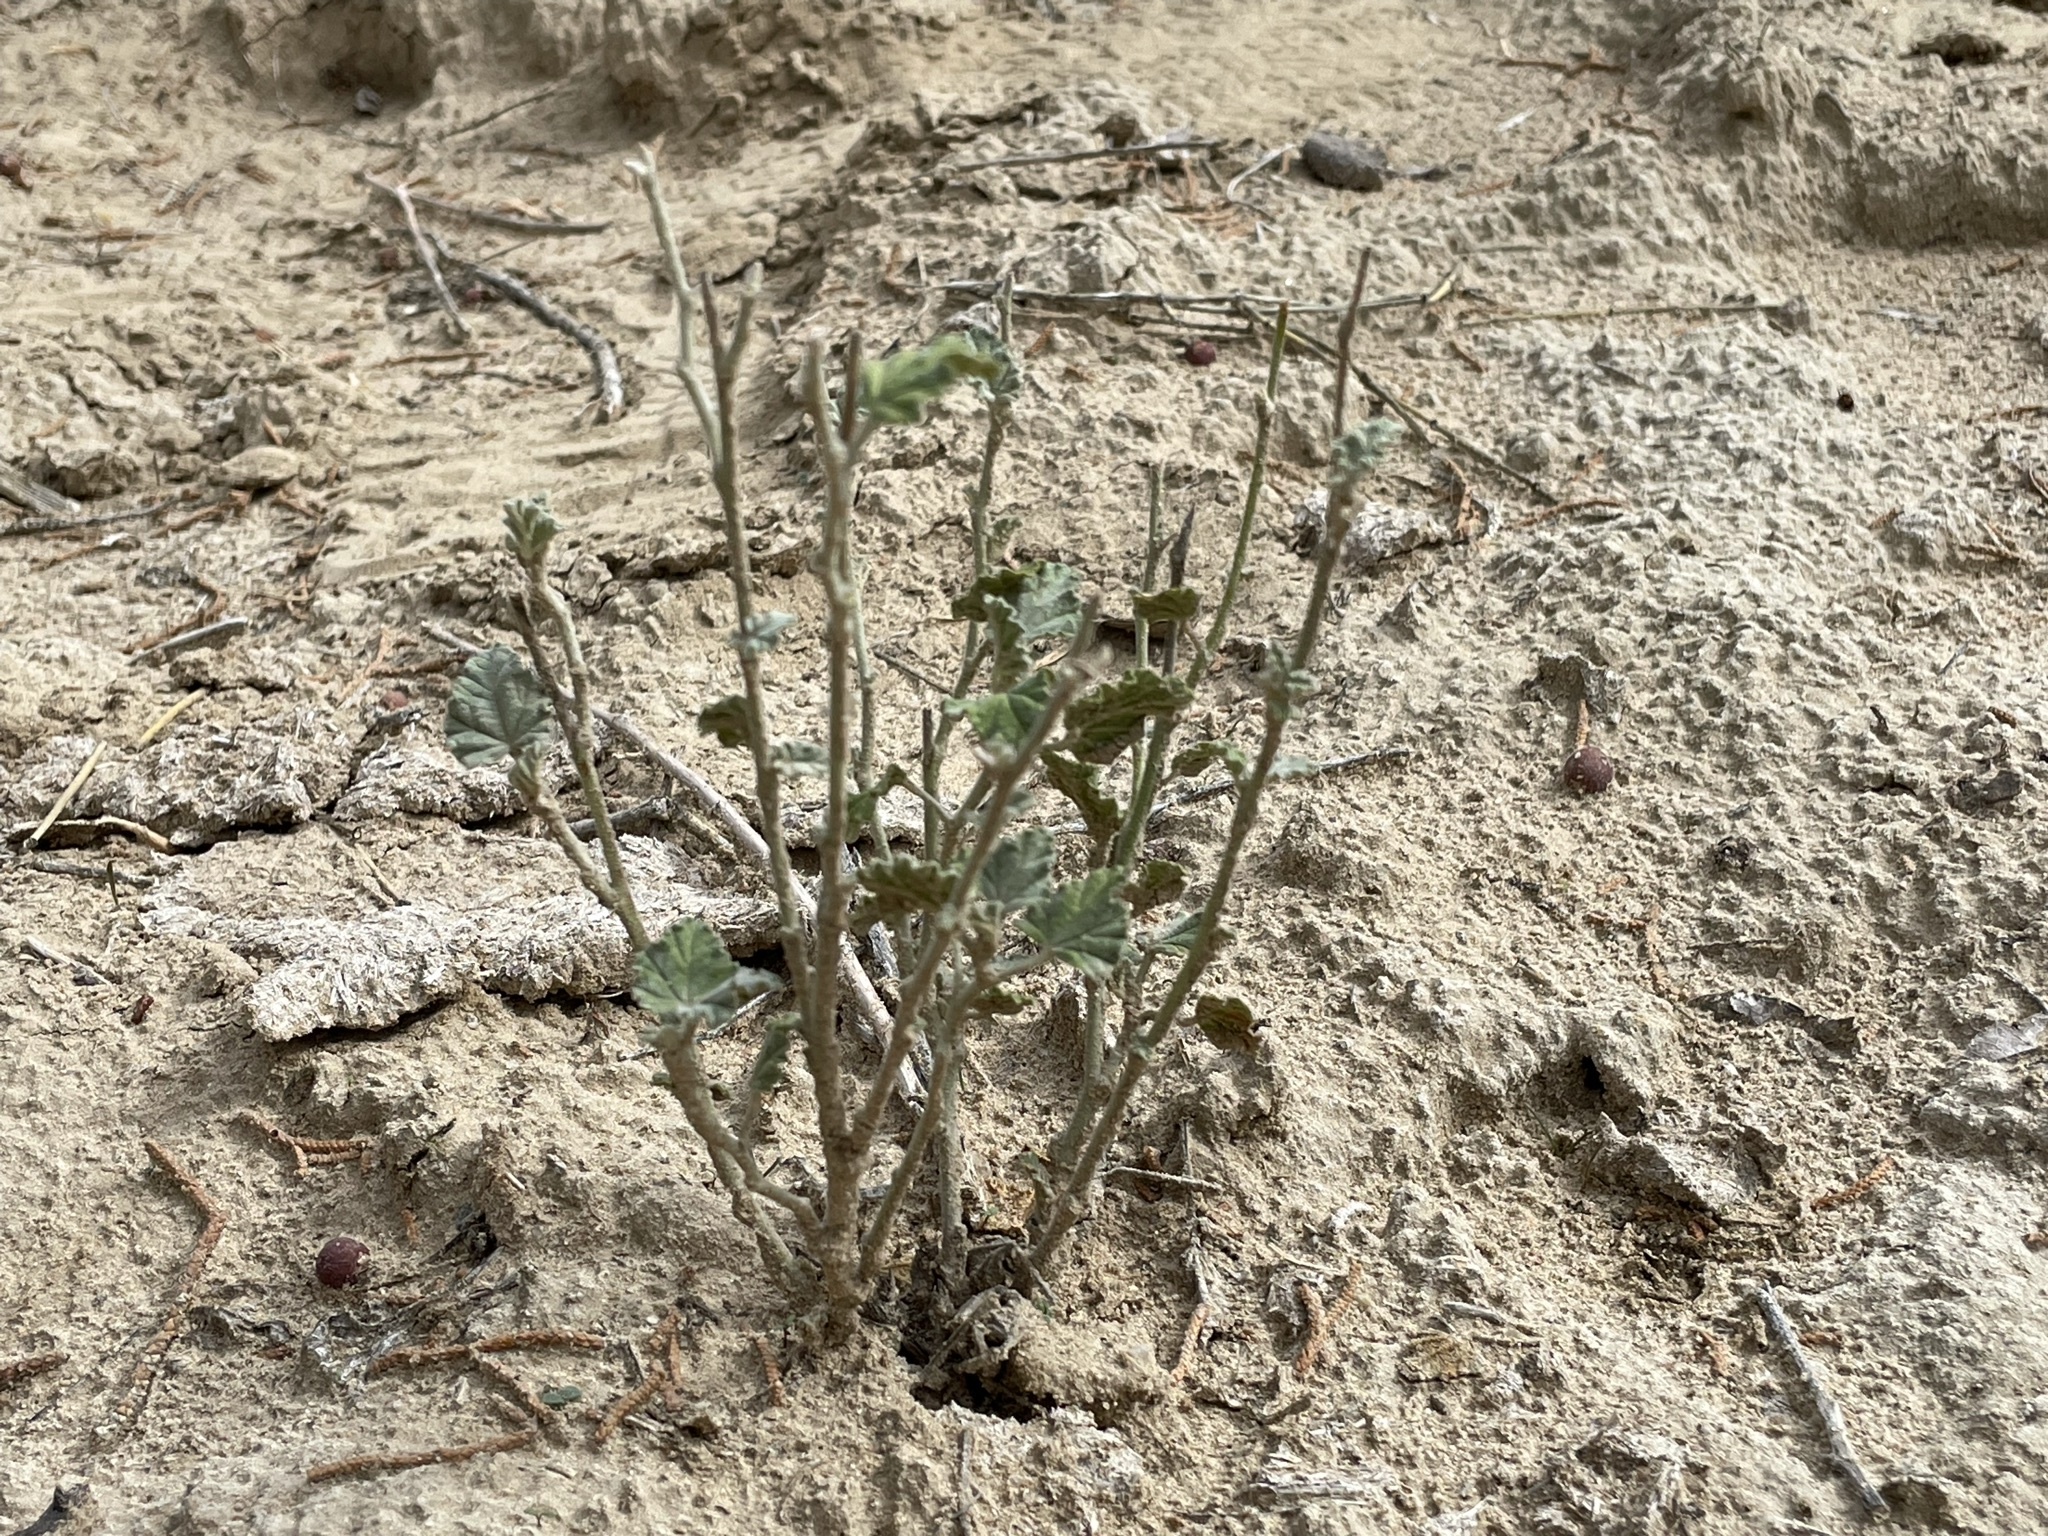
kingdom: Plantae
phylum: Tracheophyta
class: Magnoliopsida
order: Malvales
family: Malvaceae
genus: Sphaeralcea
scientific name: Sphaeralcea parvifolia
